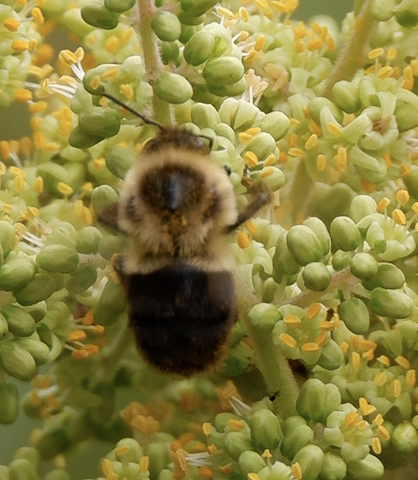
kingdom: Animalia
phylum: Arthropoda
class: Insecta
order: Hymenoptera
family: Apidae
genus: Bombus
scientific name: Bombus impatiens
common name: Common eastern bumble bee
